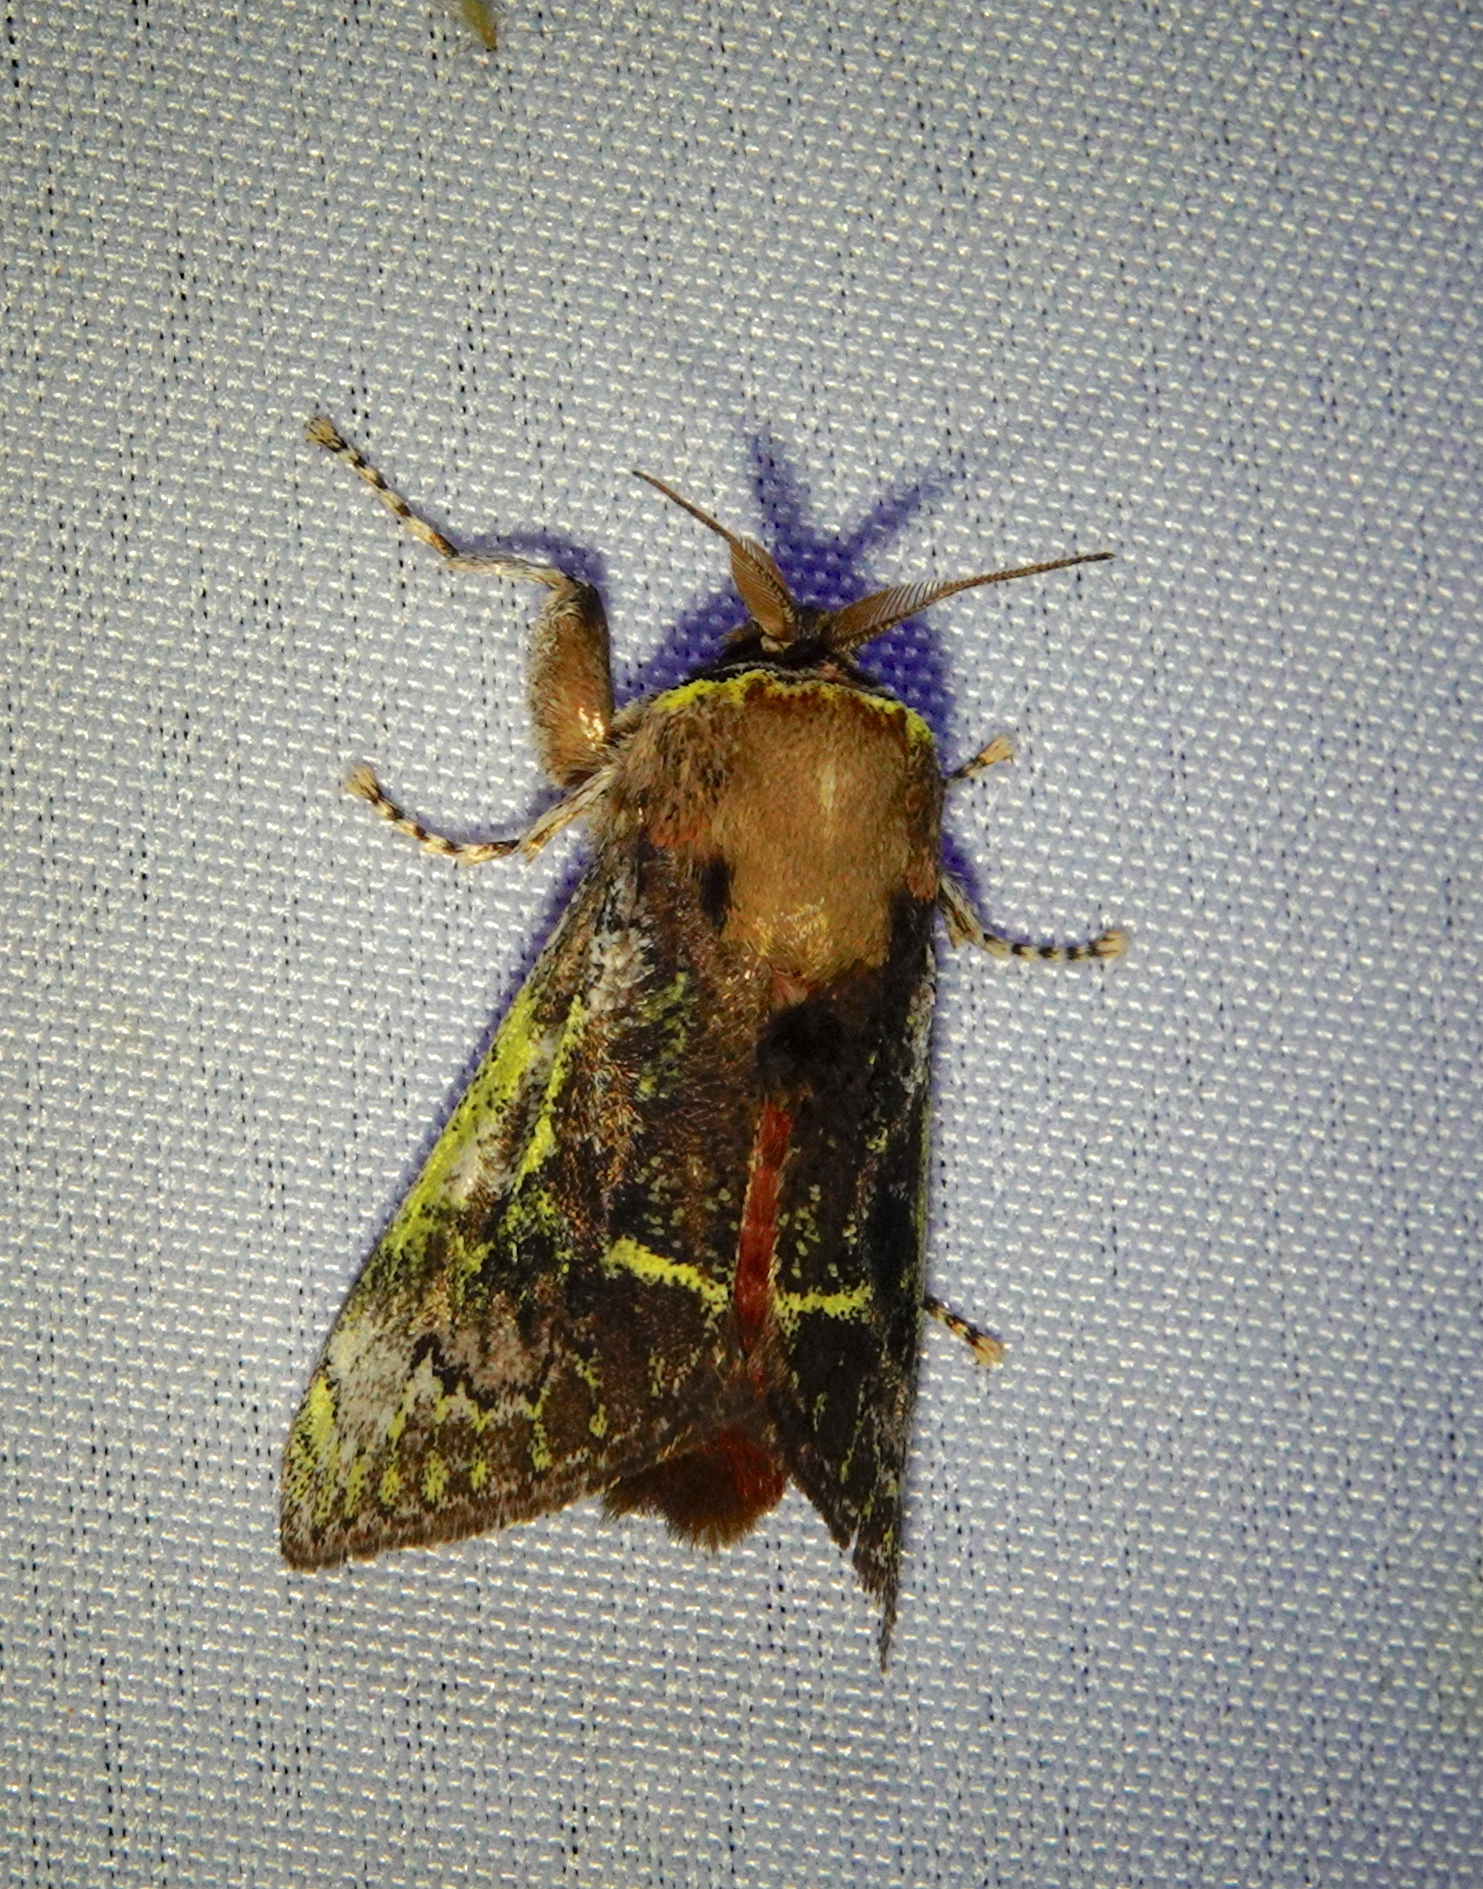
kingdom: Animalia
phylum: Arthropoda
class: Insecta
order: Lepidoptera
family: Aididae
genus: Aidos
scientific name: Aidos yamouna
